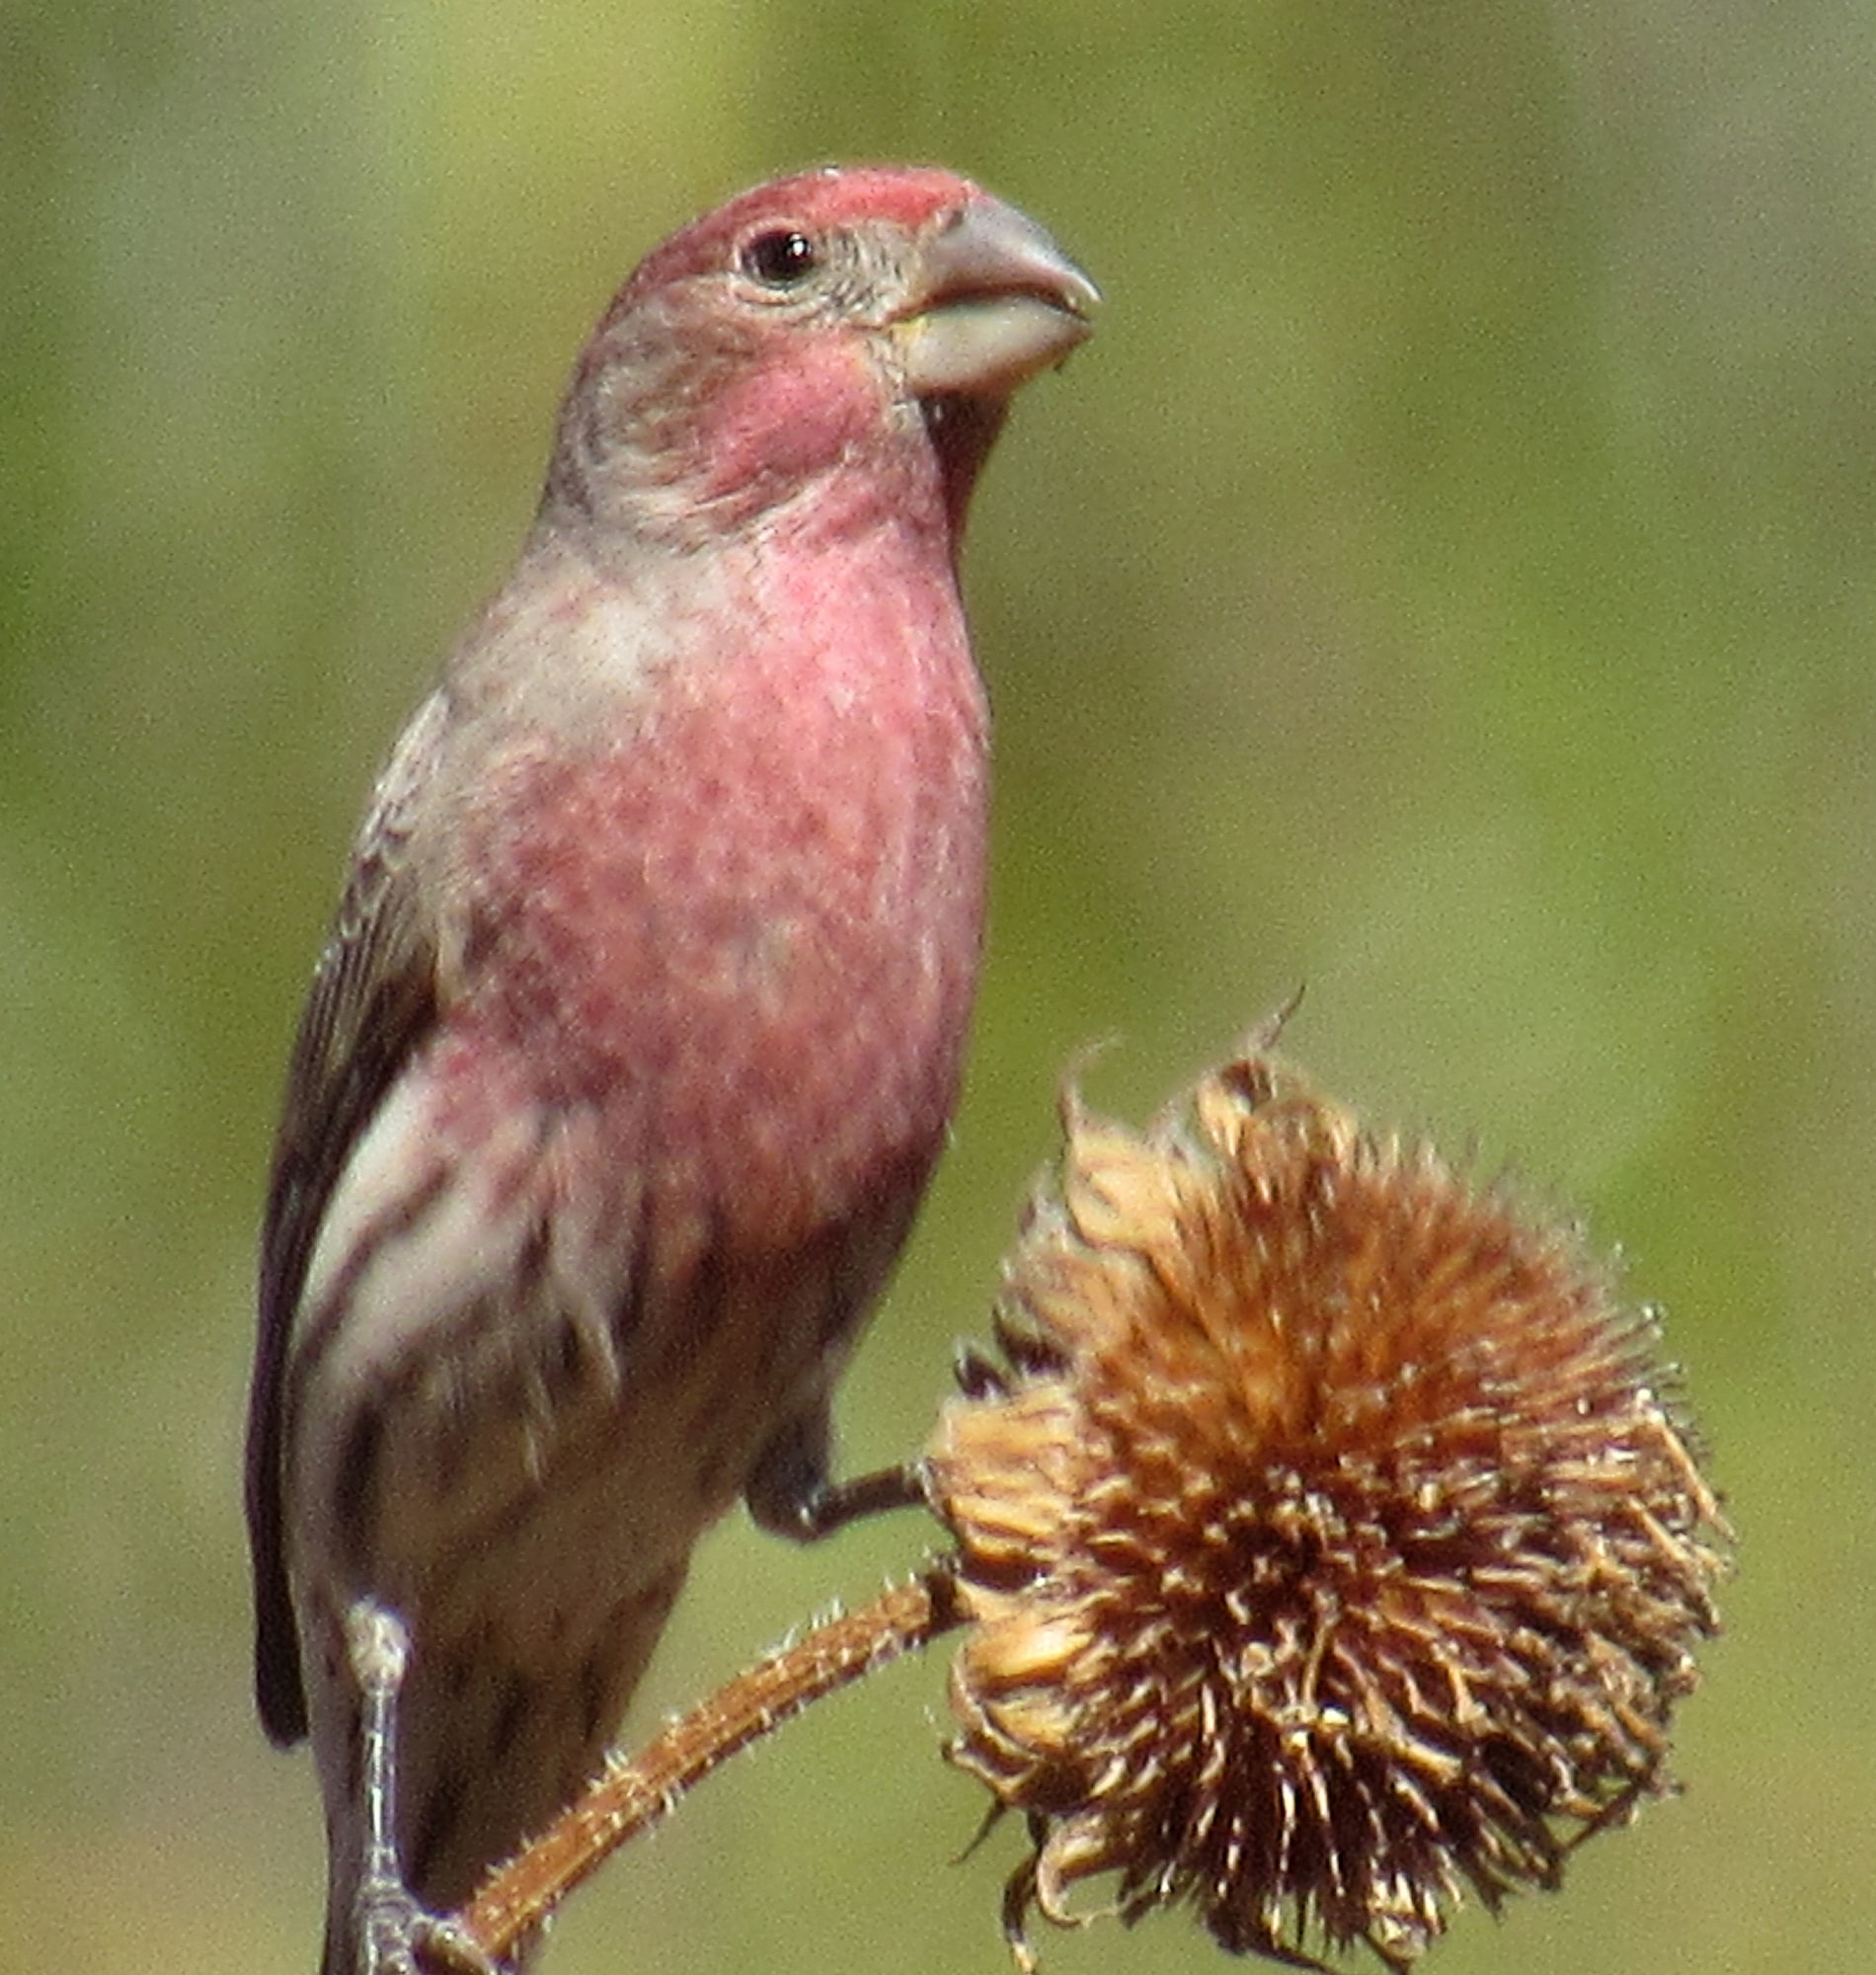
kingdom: Animalia
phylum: Chordata
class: Aves
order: Passeriformes
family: Fringillidae
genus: Haemorhous
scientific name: Haemorhous mexicanus
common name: House finch
